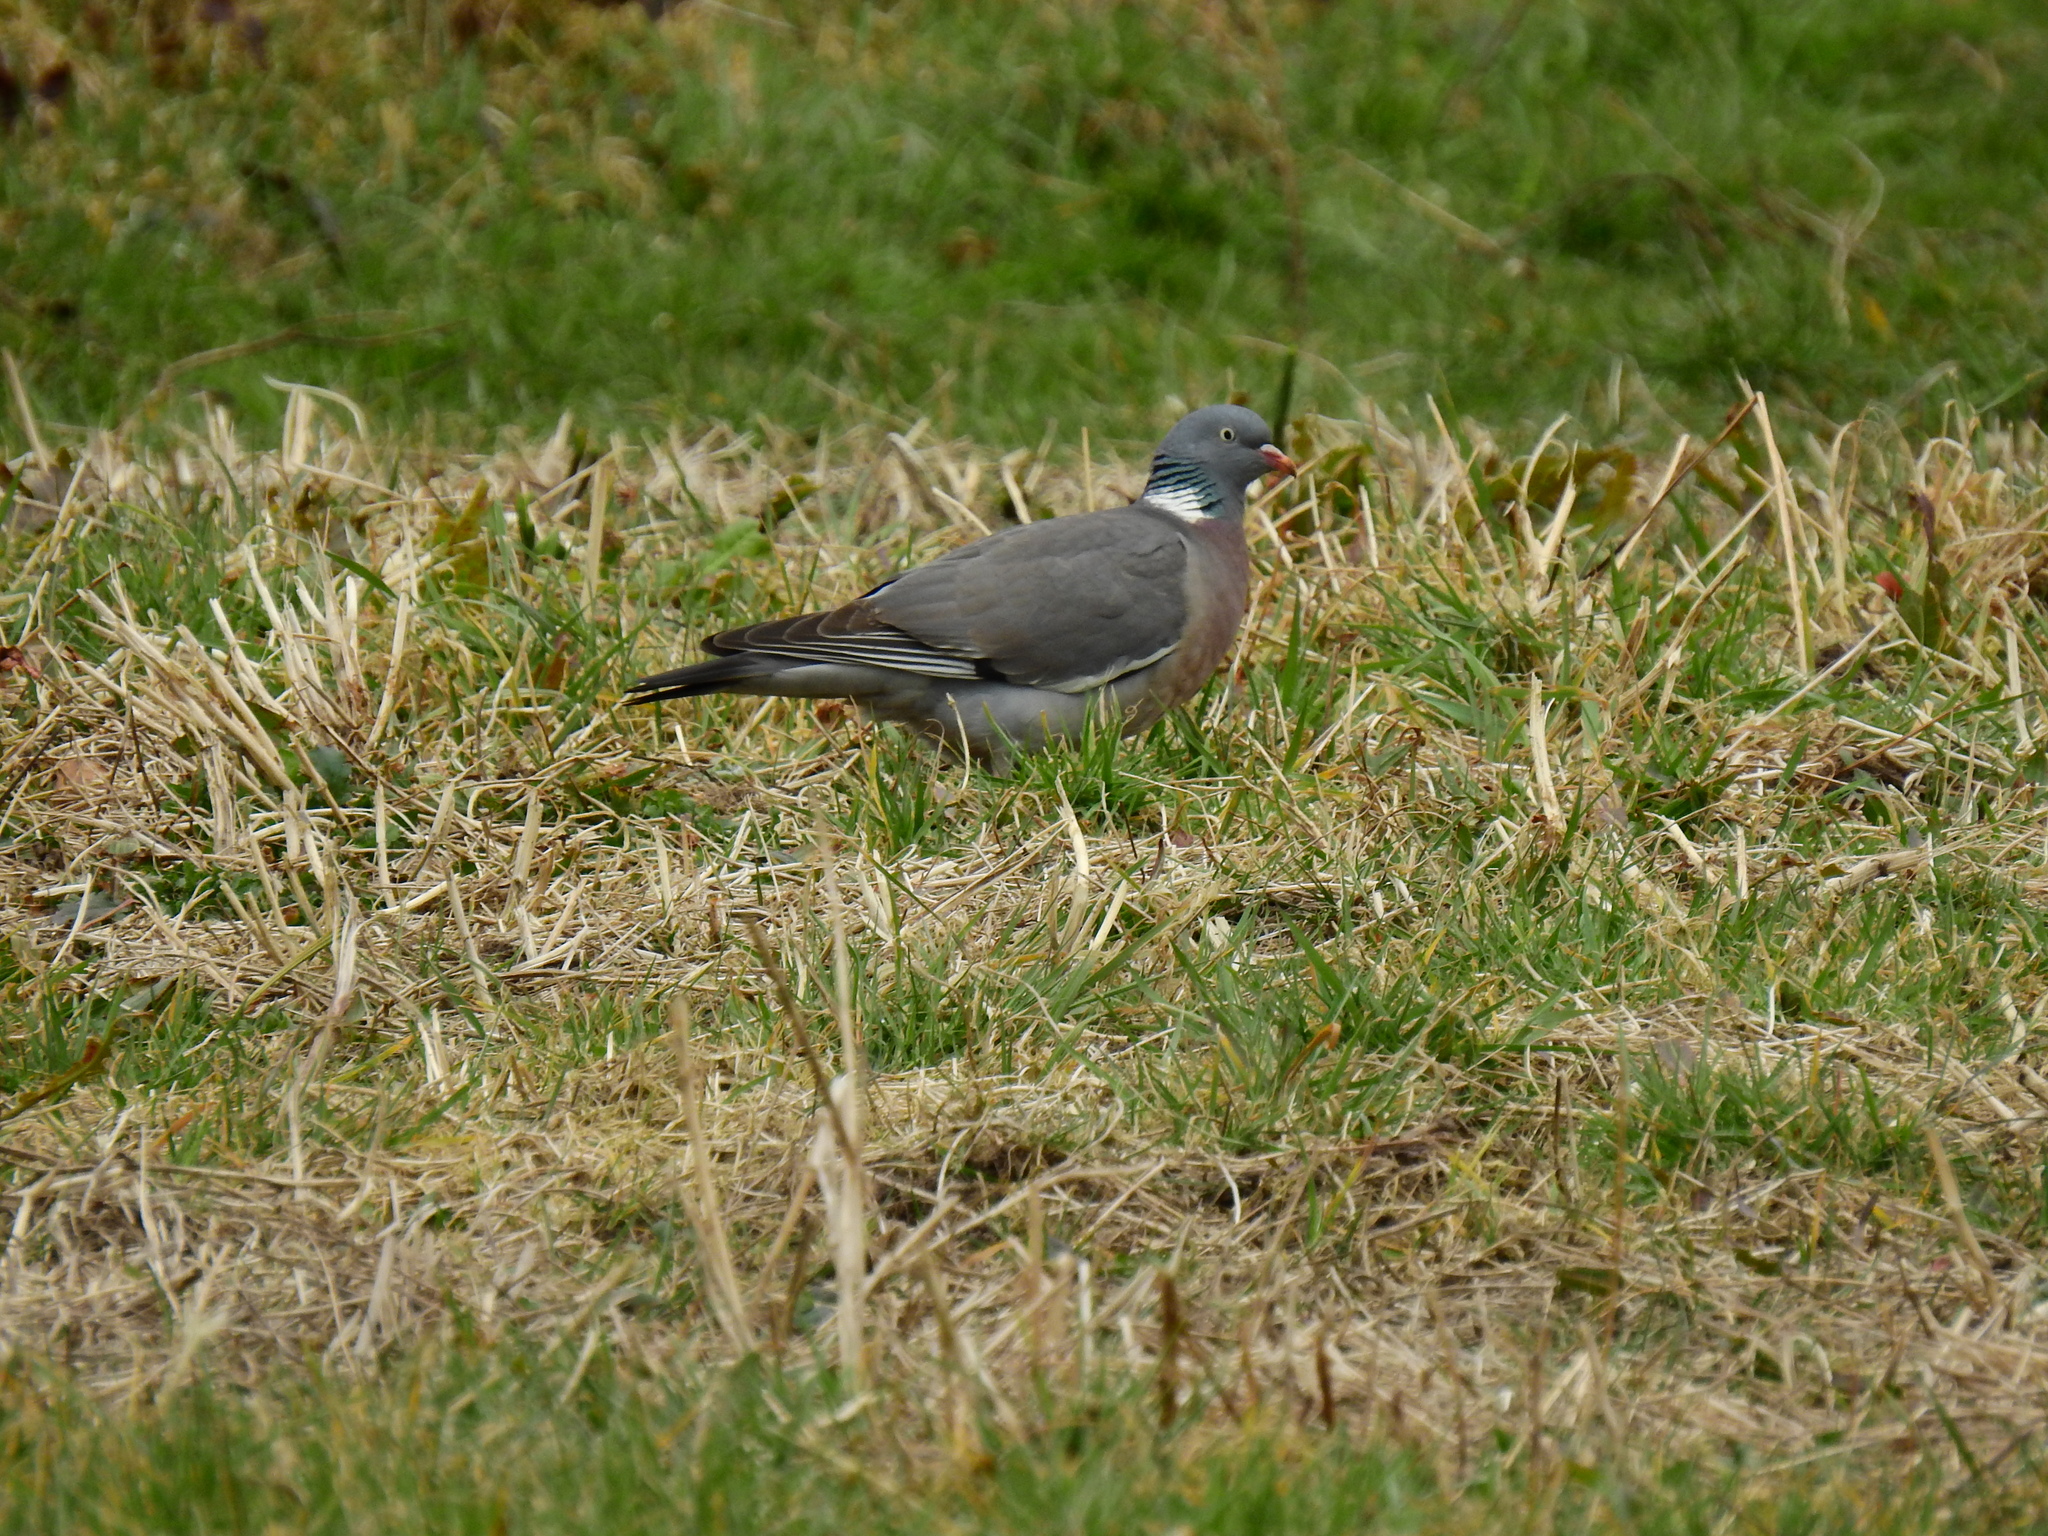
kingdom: Animalia
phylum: Chordata
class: Aves
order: Columbiformes
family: Columbidae
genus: Columba
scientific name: Columba palumbus
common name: Common wood pigeon
